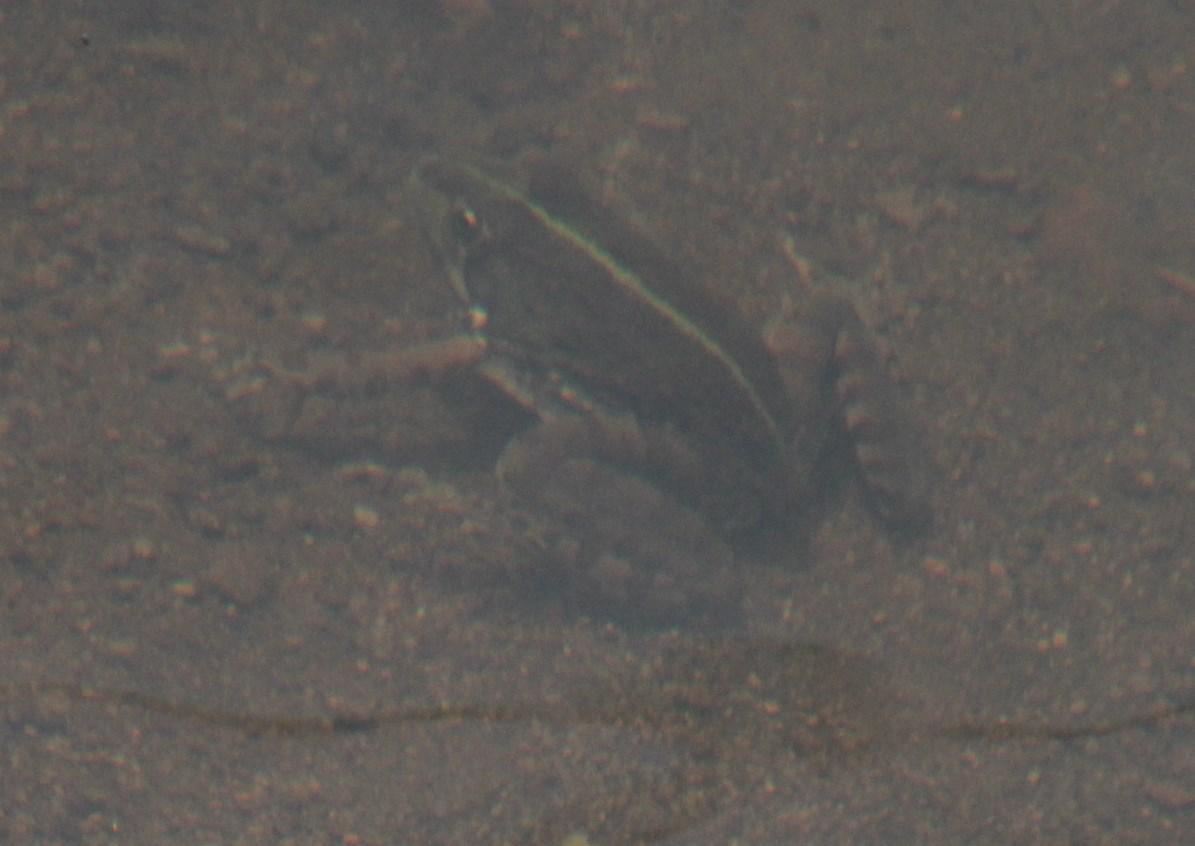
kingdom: Animalia
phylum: Chordata
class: Amphibia
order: Anura
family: Pyxicephalidae
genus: Amietia
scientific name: Amietia poyntoni
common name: Poynton's river frog
